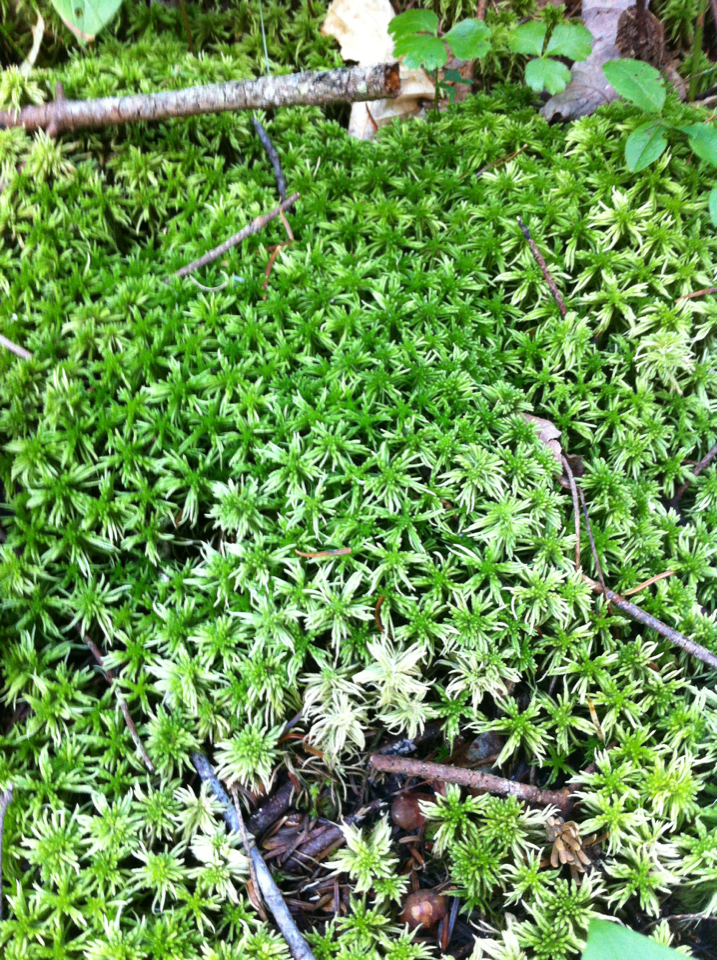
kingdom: Plantae
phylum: Bryophyta
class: Sphagnopsida
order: Sphagnales
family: Sphagnaceae
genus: Sphagnum
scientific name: Sphagnum
